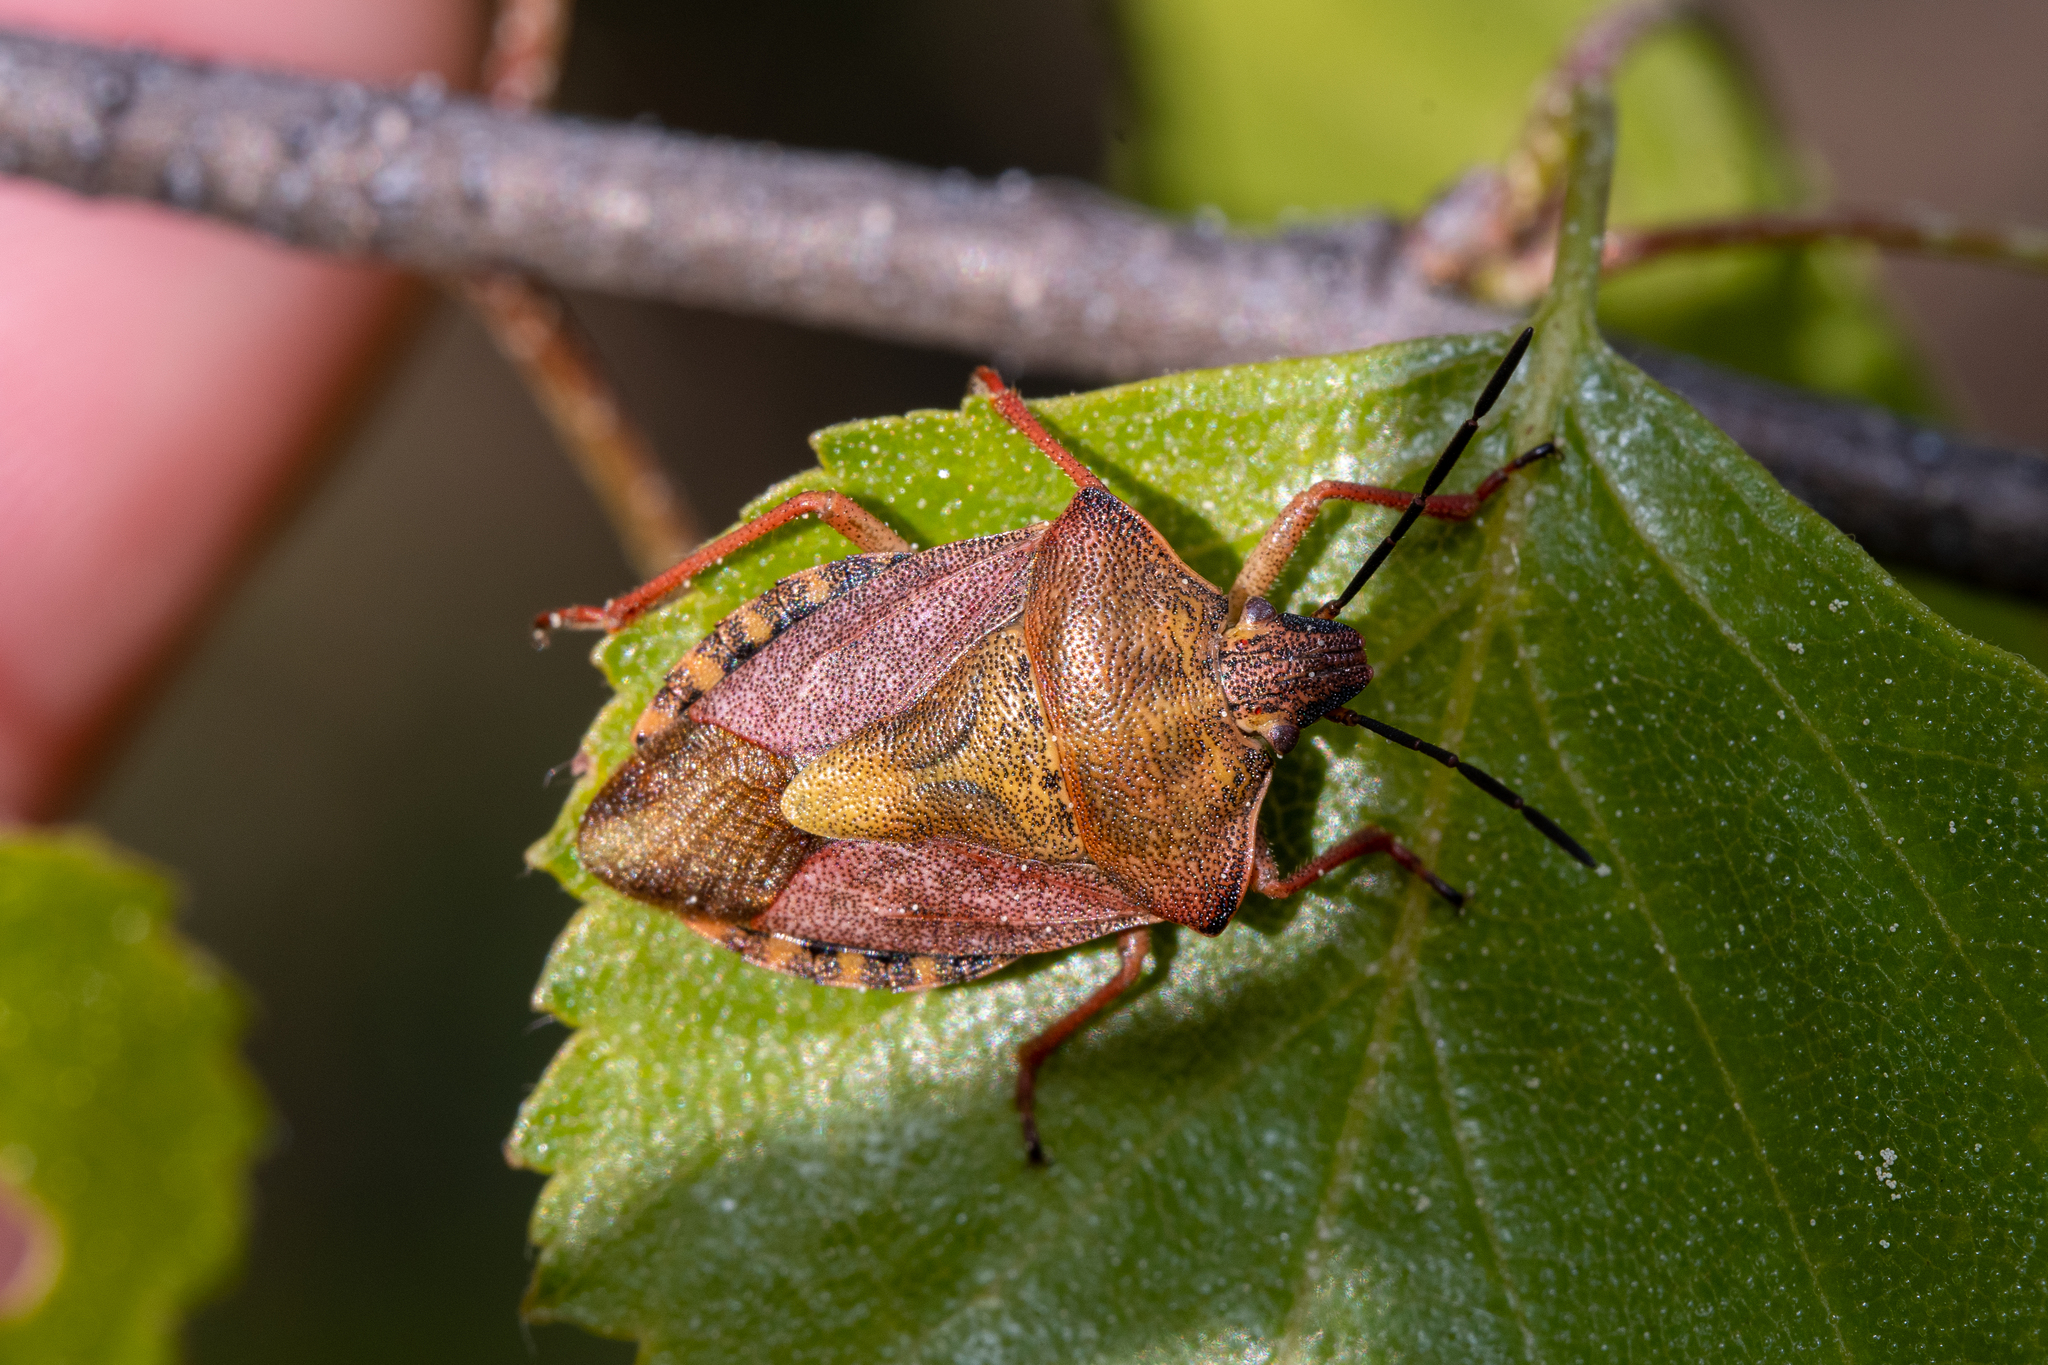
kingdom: Animalia
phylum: Arthropoda
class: Insecta
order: Hemiptera
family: Pentatomidae
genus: Carpocoris
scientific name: Carpocoris purpureipennis
